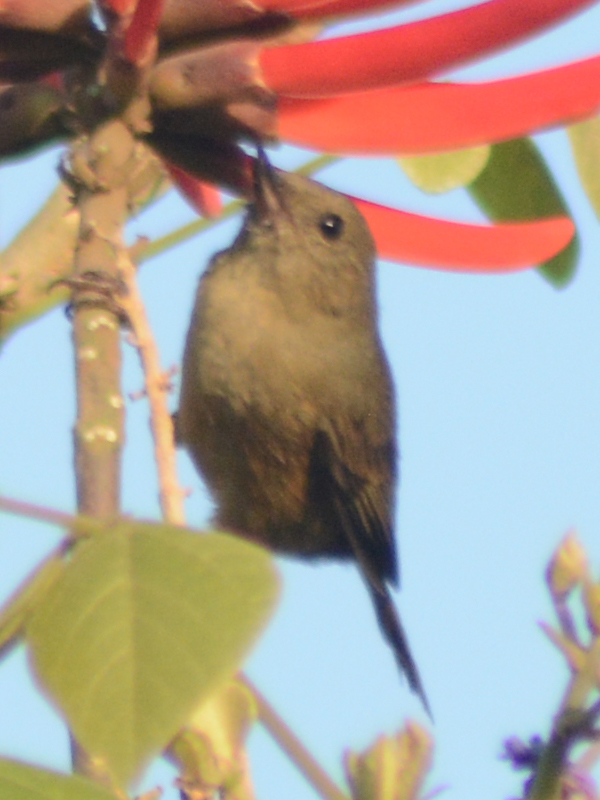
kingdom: Animalia
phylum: Chordata
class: Aves
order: Passeriformes
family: Thraupidae
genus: Diglossa
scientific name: Diglossa baritula
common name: Cinnamon-bellied flowerpiercer
